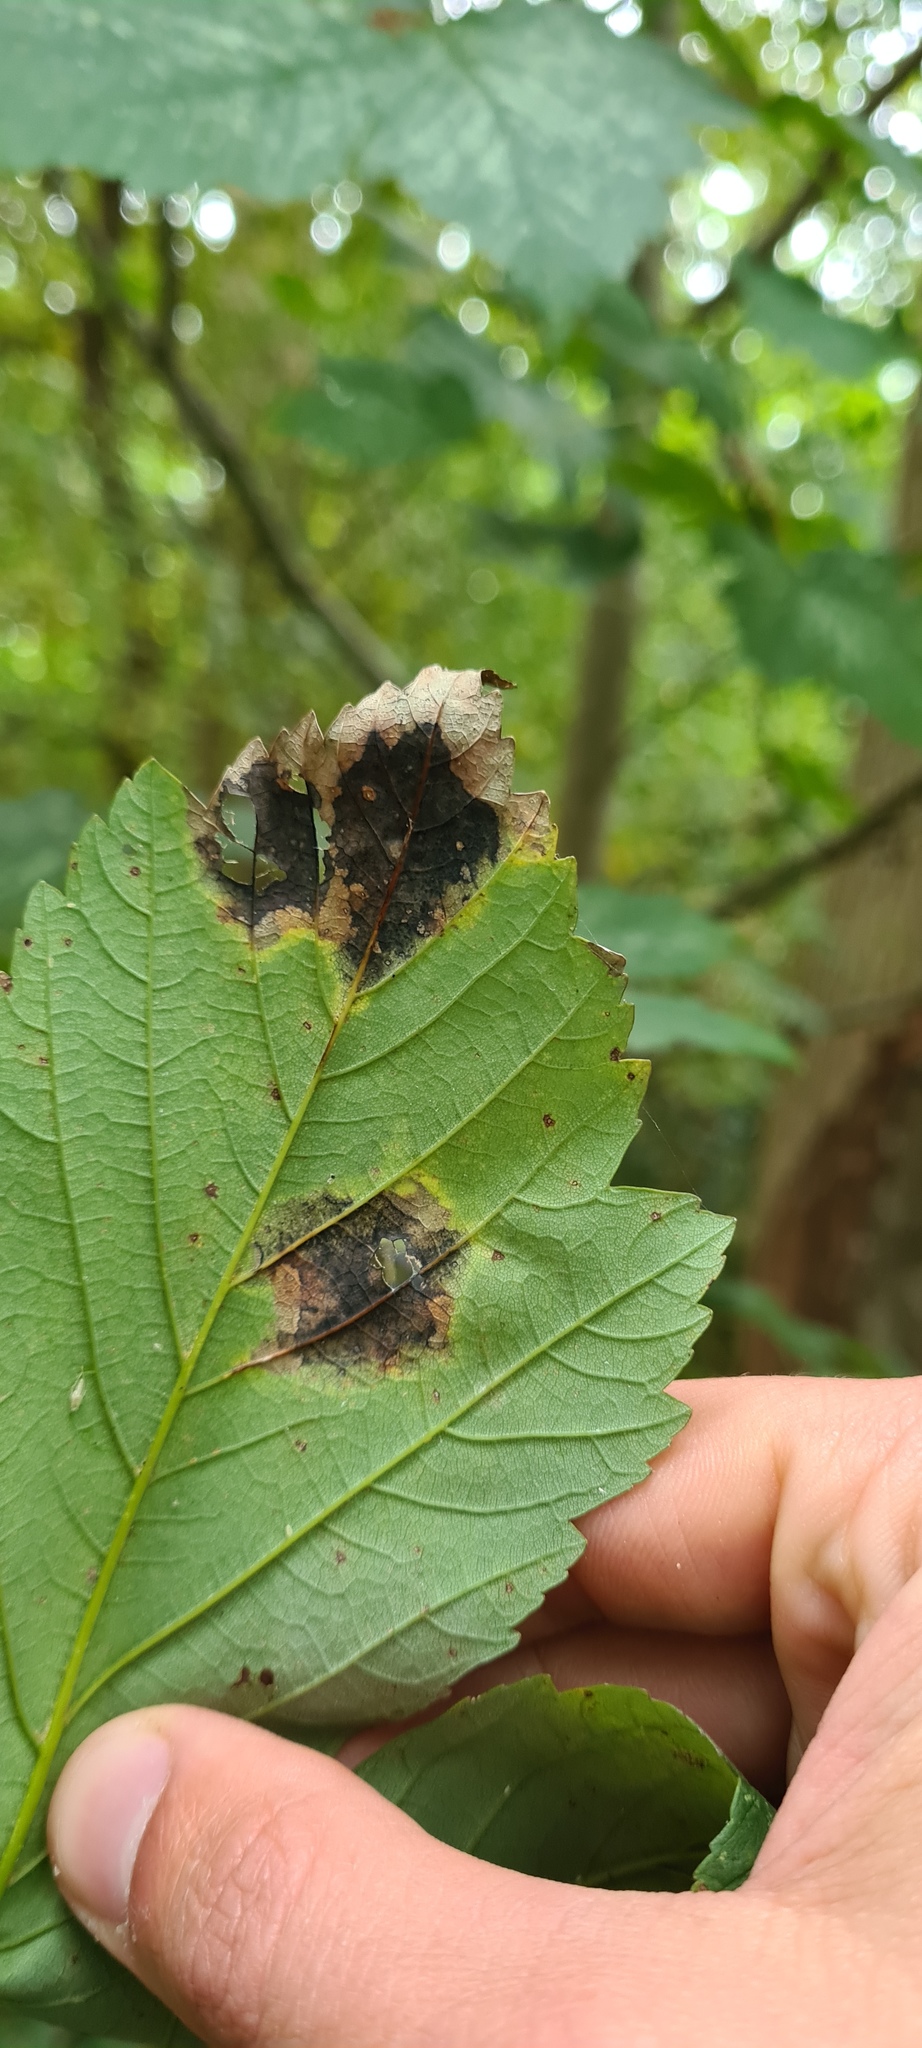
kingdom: Fungi
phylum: Ascomycota
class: Leotiomycetes
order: Rhytismatales
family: Rhytismataceae
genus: Rhytisma
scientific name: Rhytisma acerinum
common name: European tar spot
